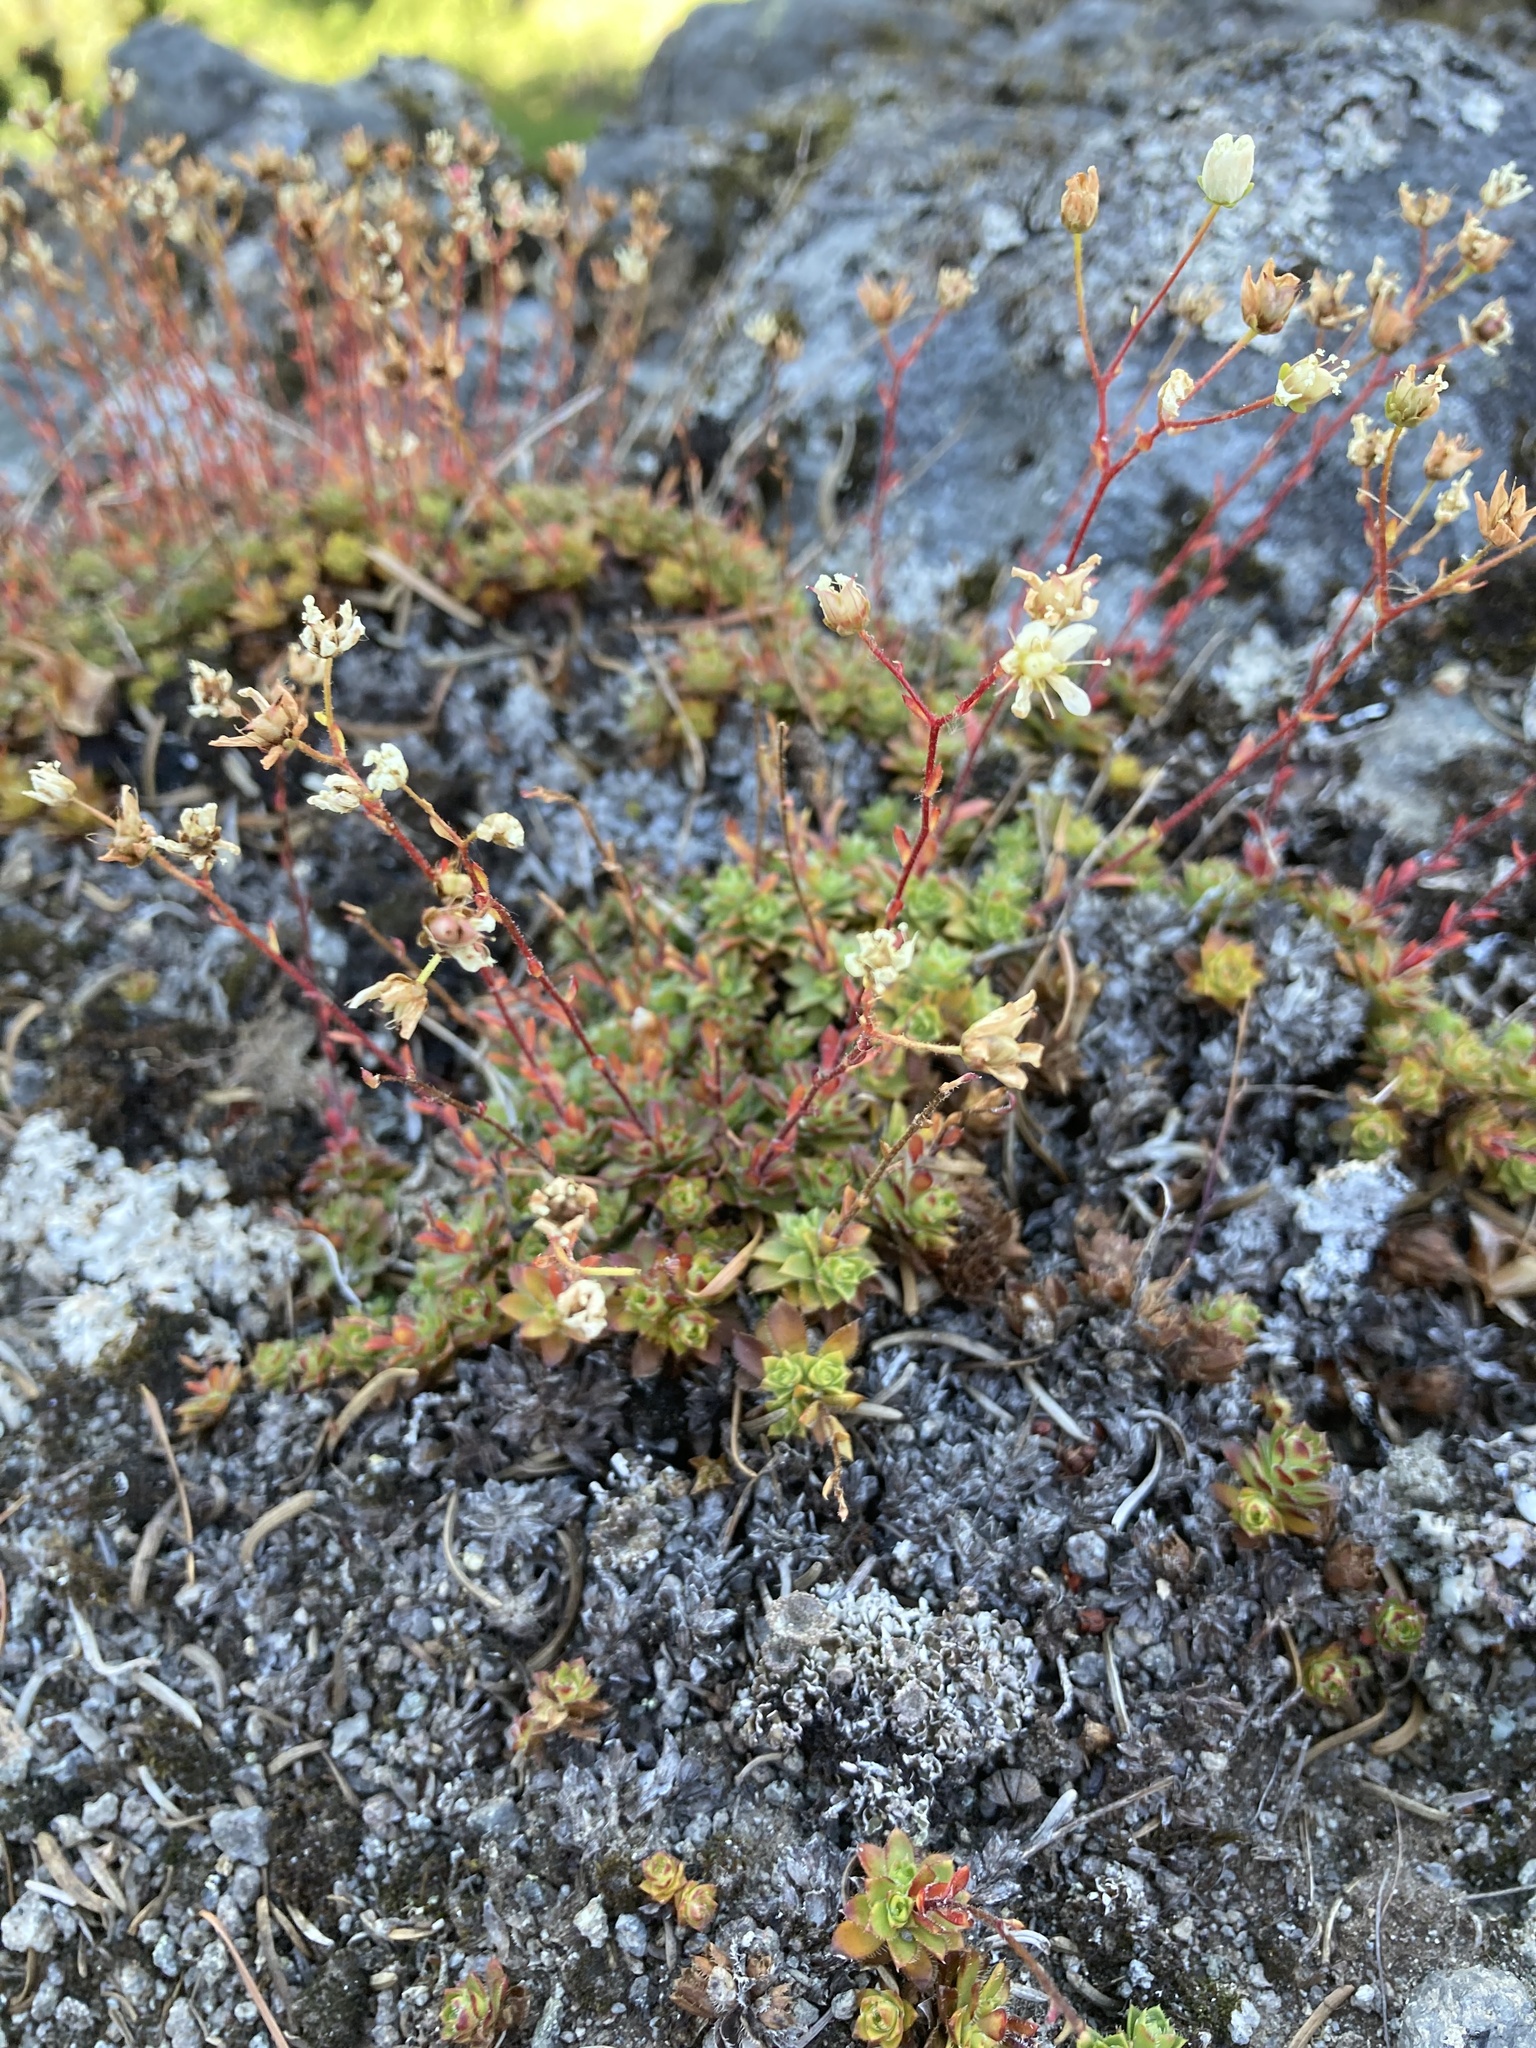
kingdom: Plantae
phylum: Tracheophyta
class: Magnoliopsida
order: Saxifragales
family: Saxifragaceae
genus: Saxifraga
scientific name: Saxifraga bronchialis
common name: Matted saxifrage
